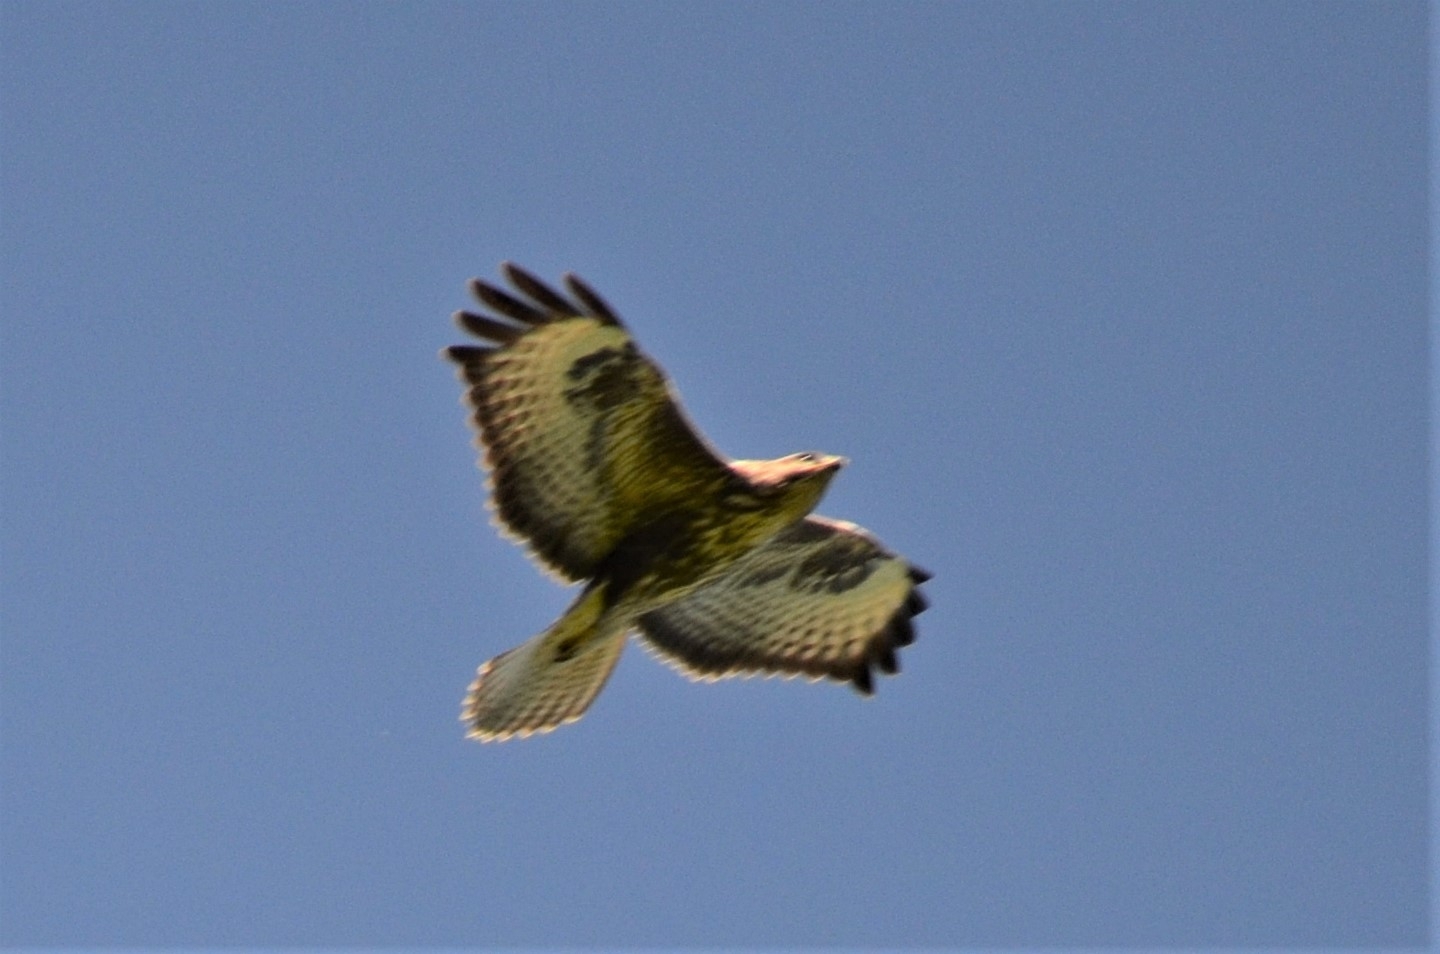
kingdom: Animalia
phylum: Chordata
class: Aves
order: Accipitriformes
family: Accipitridae
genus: Buteo
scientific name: Buteo buteo
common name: Common buzzard
